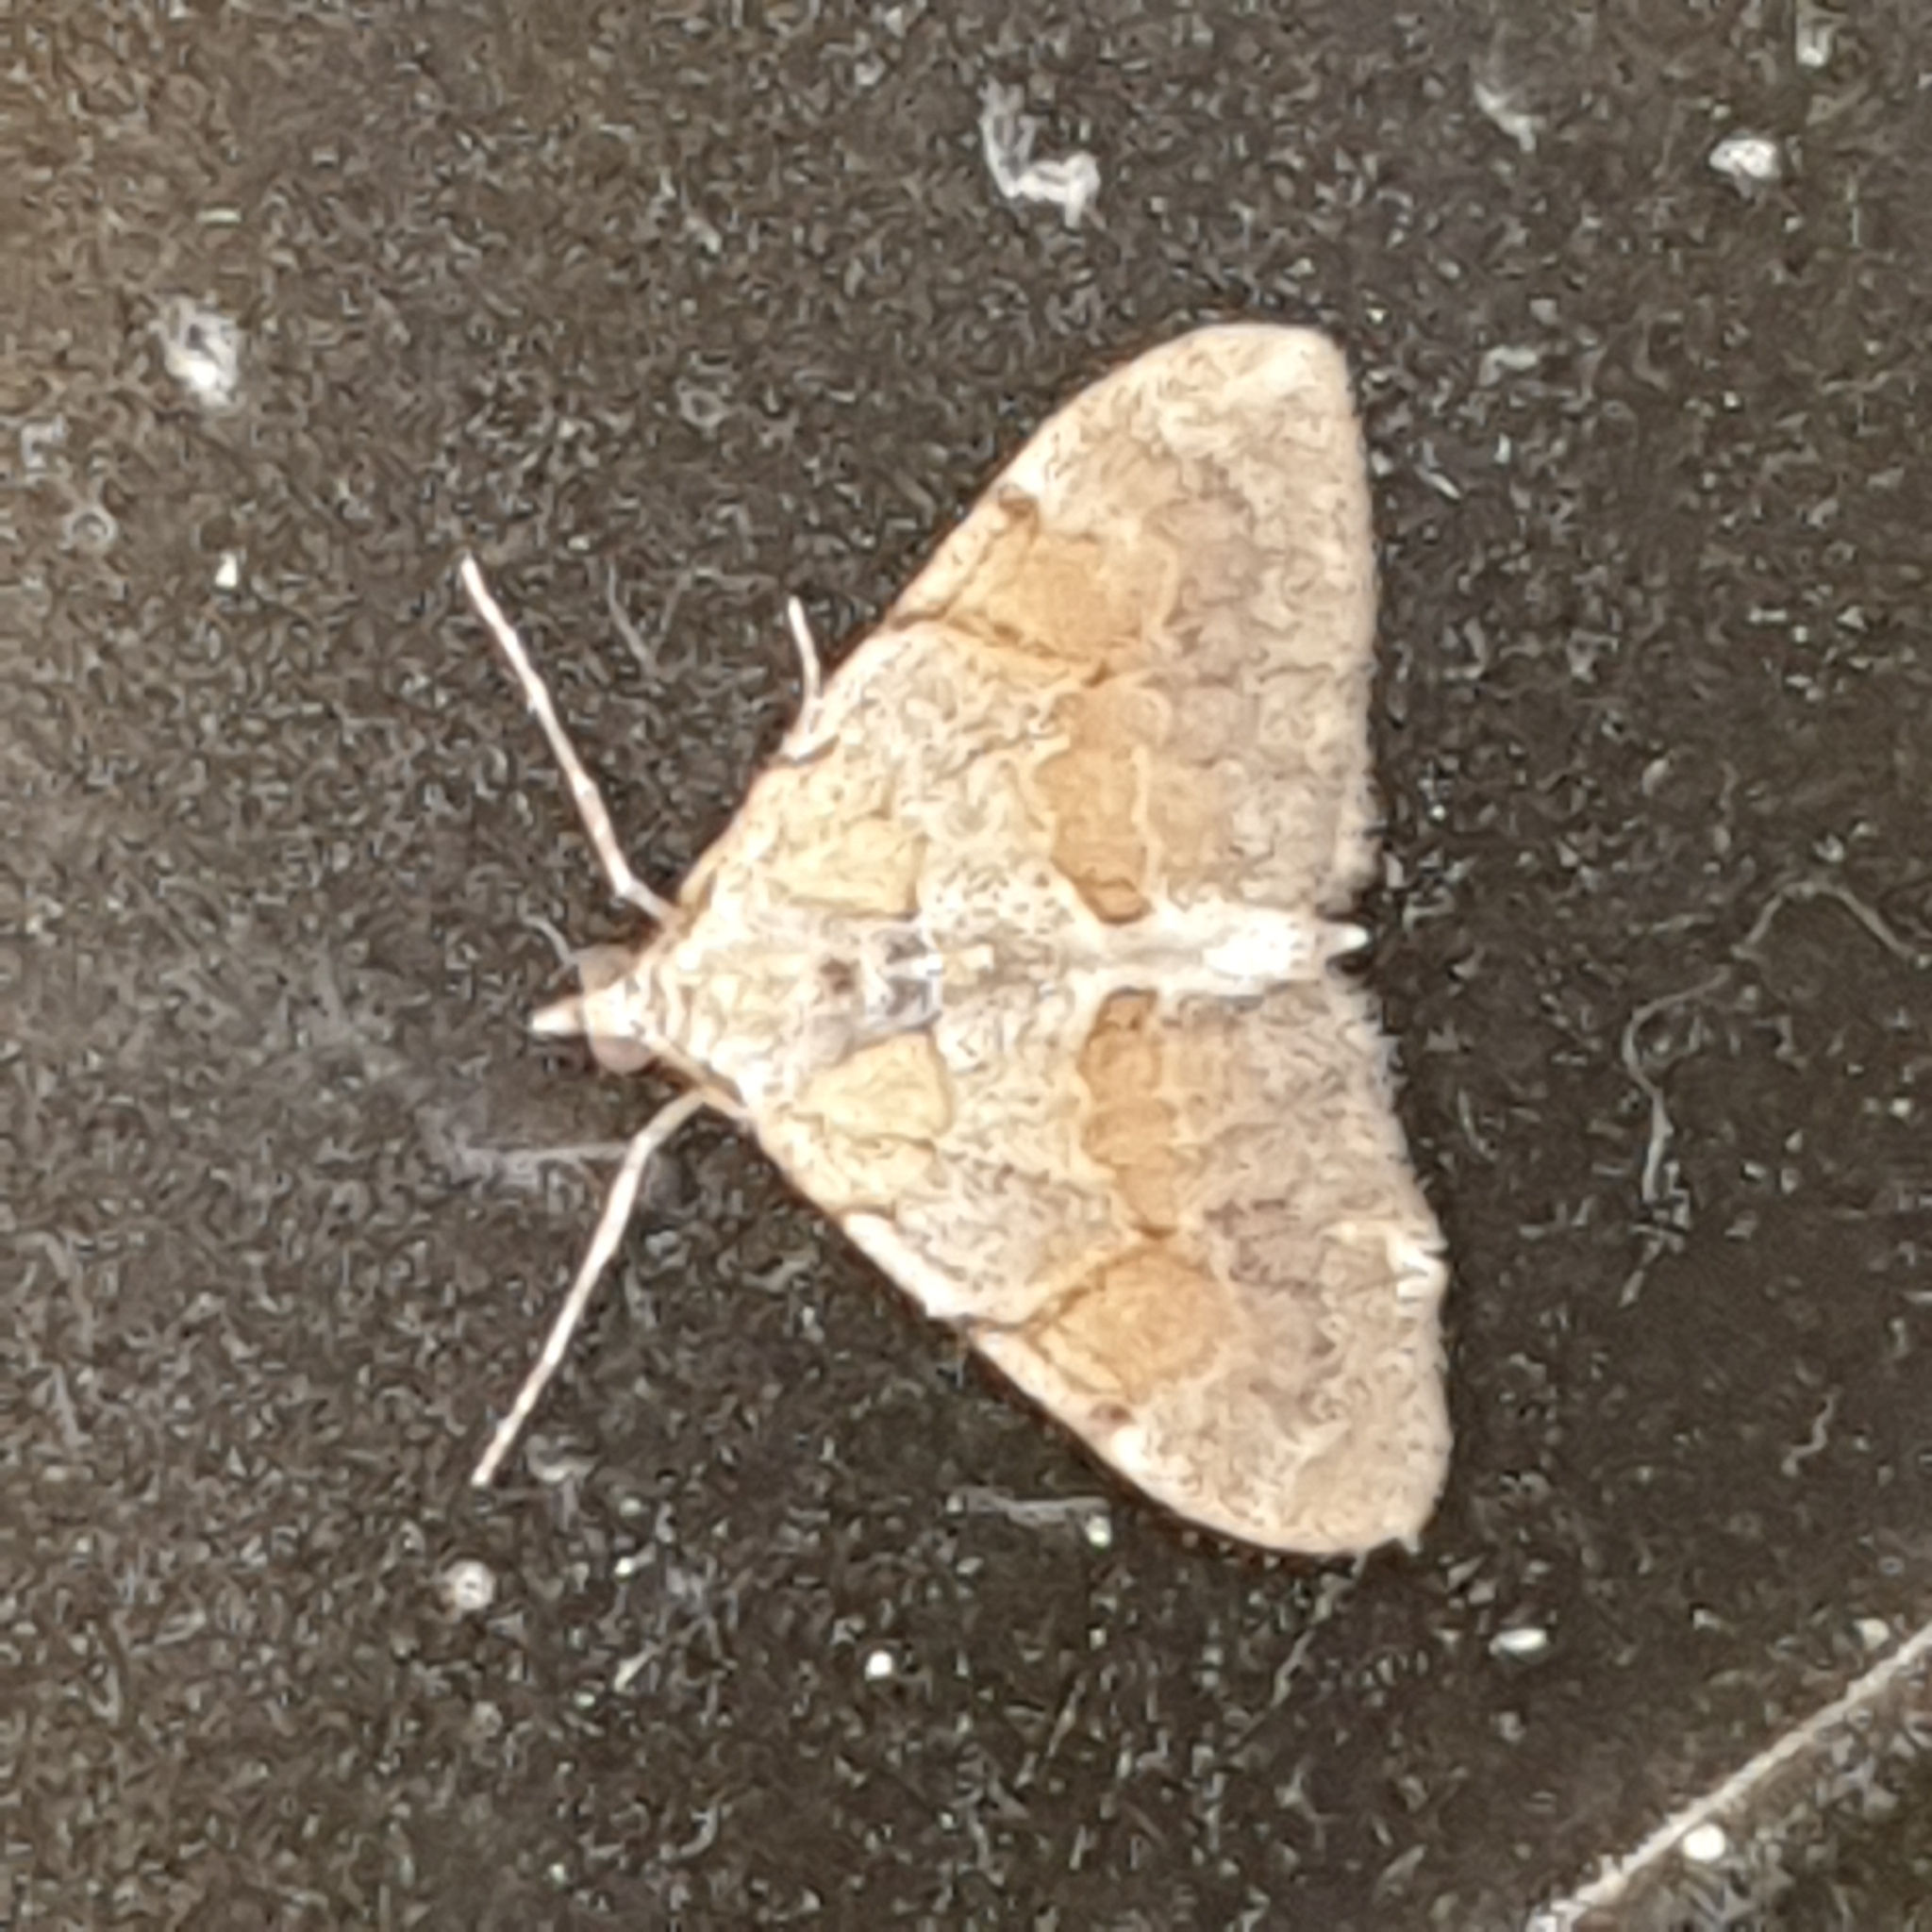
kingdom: Animalia
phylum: Arthropoda
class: Insecta
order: Lepidoptera
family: Geometridae
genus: Thera
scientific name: Thera obeliscata
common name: Grey pine carpet
